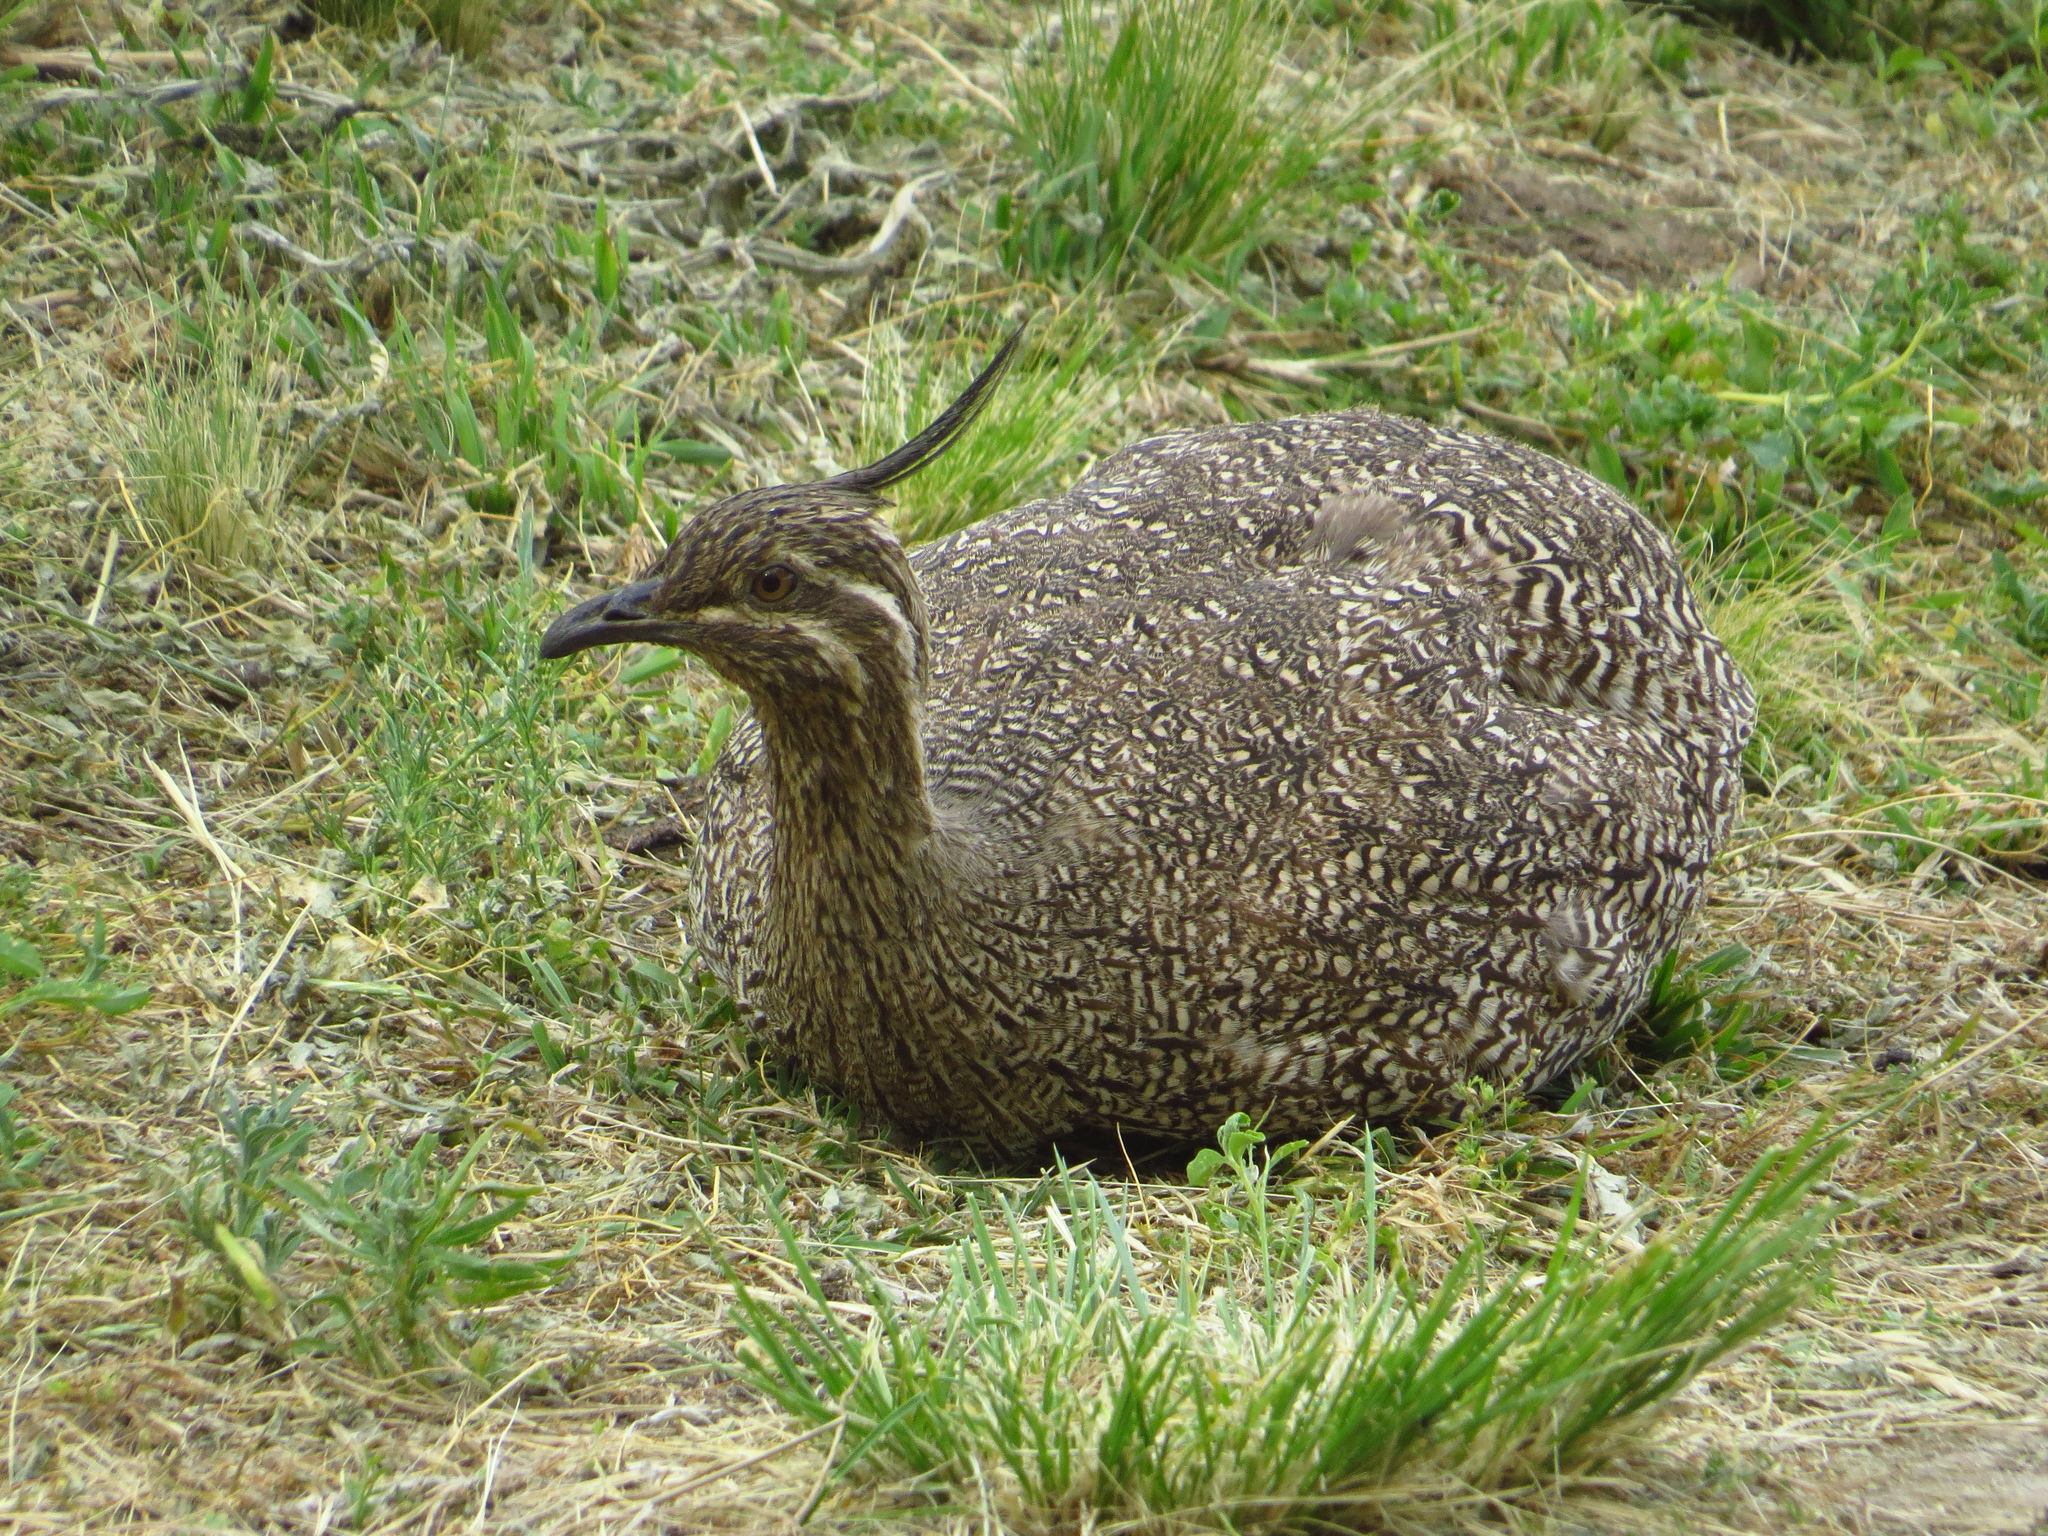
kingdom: Animalia
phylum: Chordata
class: Aves
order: Tinamiformes
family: Tinamidae
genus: Eudromia
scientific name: Eudromia elegans
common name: Elegant crested tinamou
